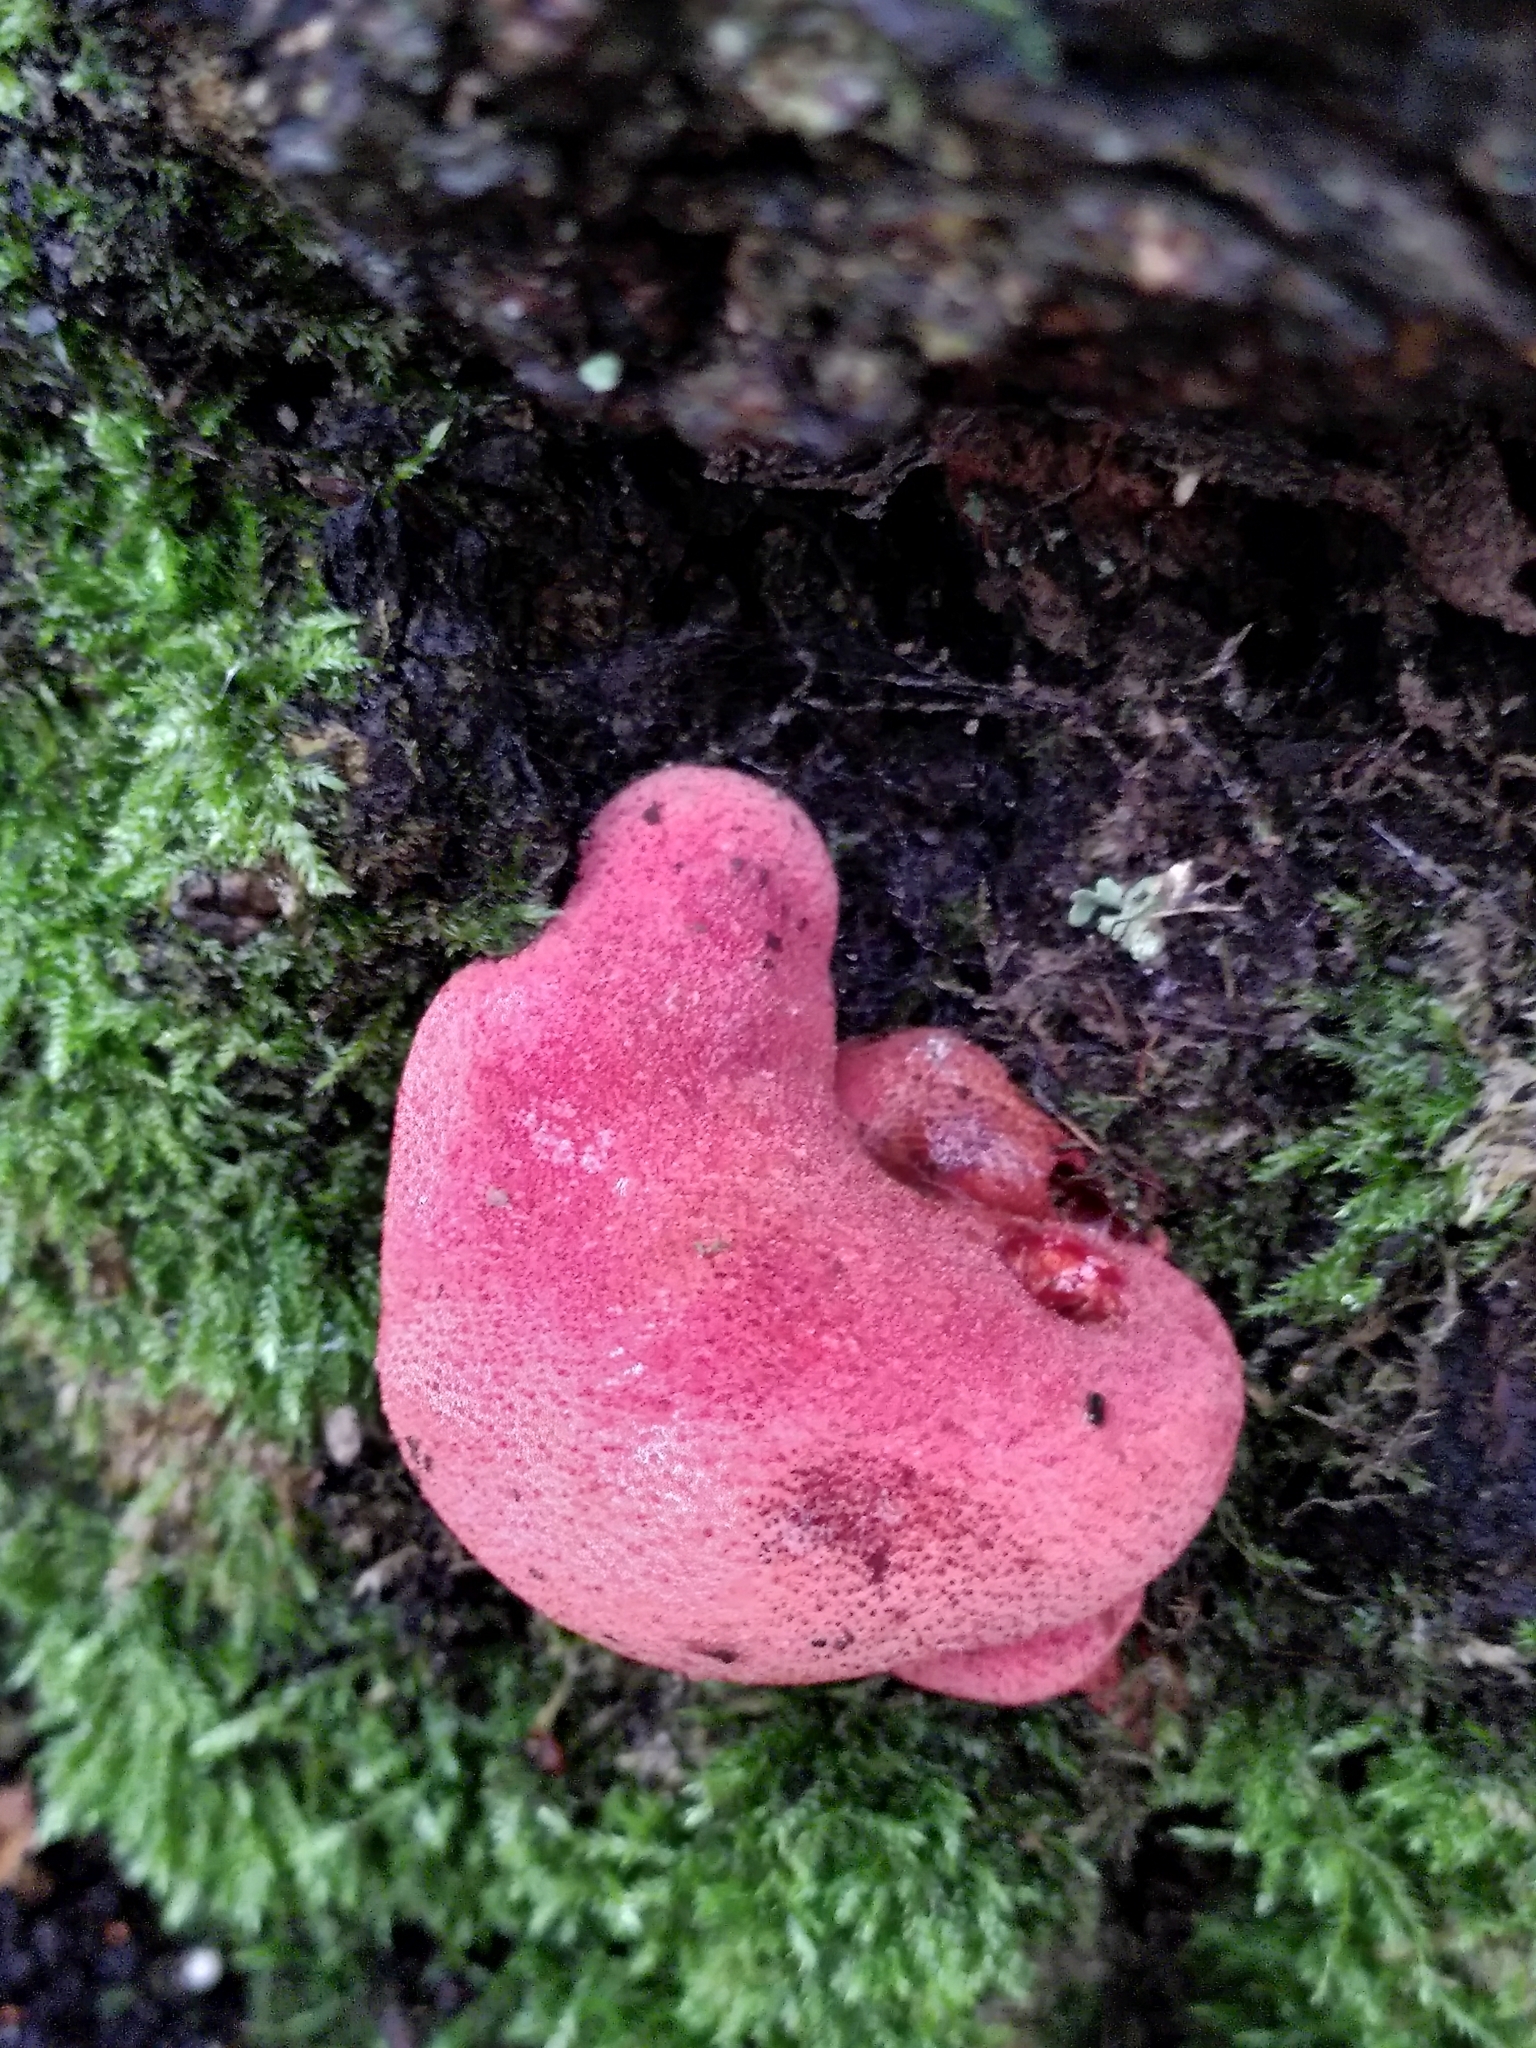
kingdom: Fungi
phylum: Basidiomycota
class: Agaricomycetes
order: Agaricales
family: Fistulinaceae
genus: Fistulina
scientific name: Fistulina hepatica
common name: Beef-steak fungus
